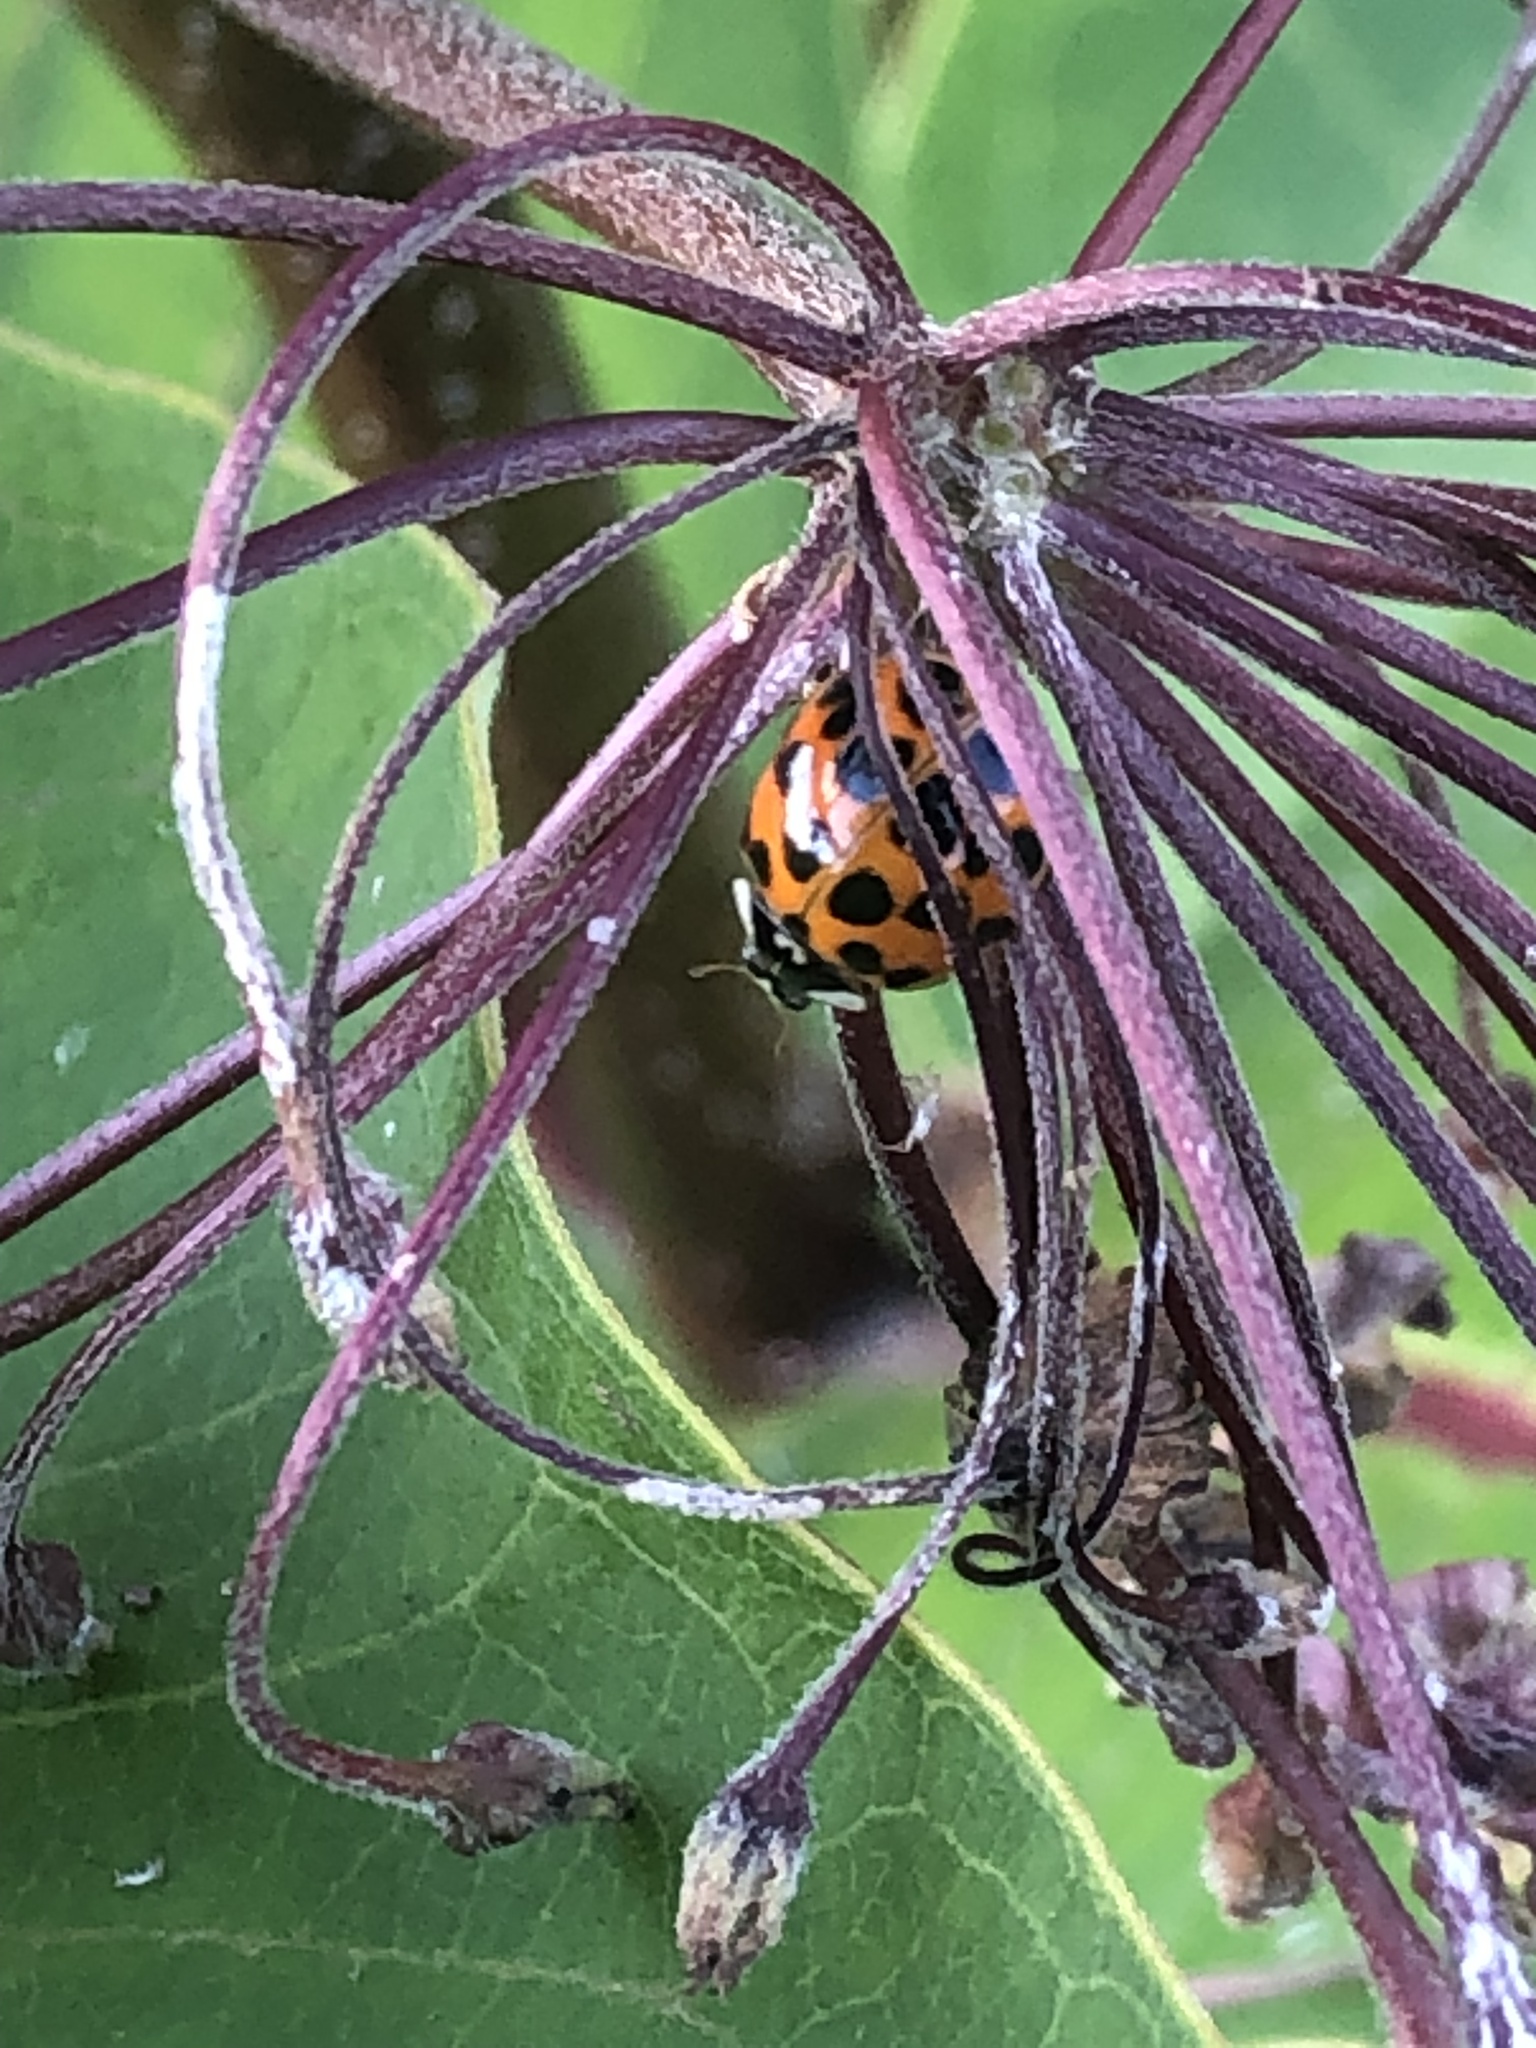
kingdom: Animalia
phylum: Arthropoda
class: Insecta
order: Coleoptera
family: Coccinellidae
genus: Harmonia
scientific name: Harmonia axyridis
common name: Harlequin ladybird
